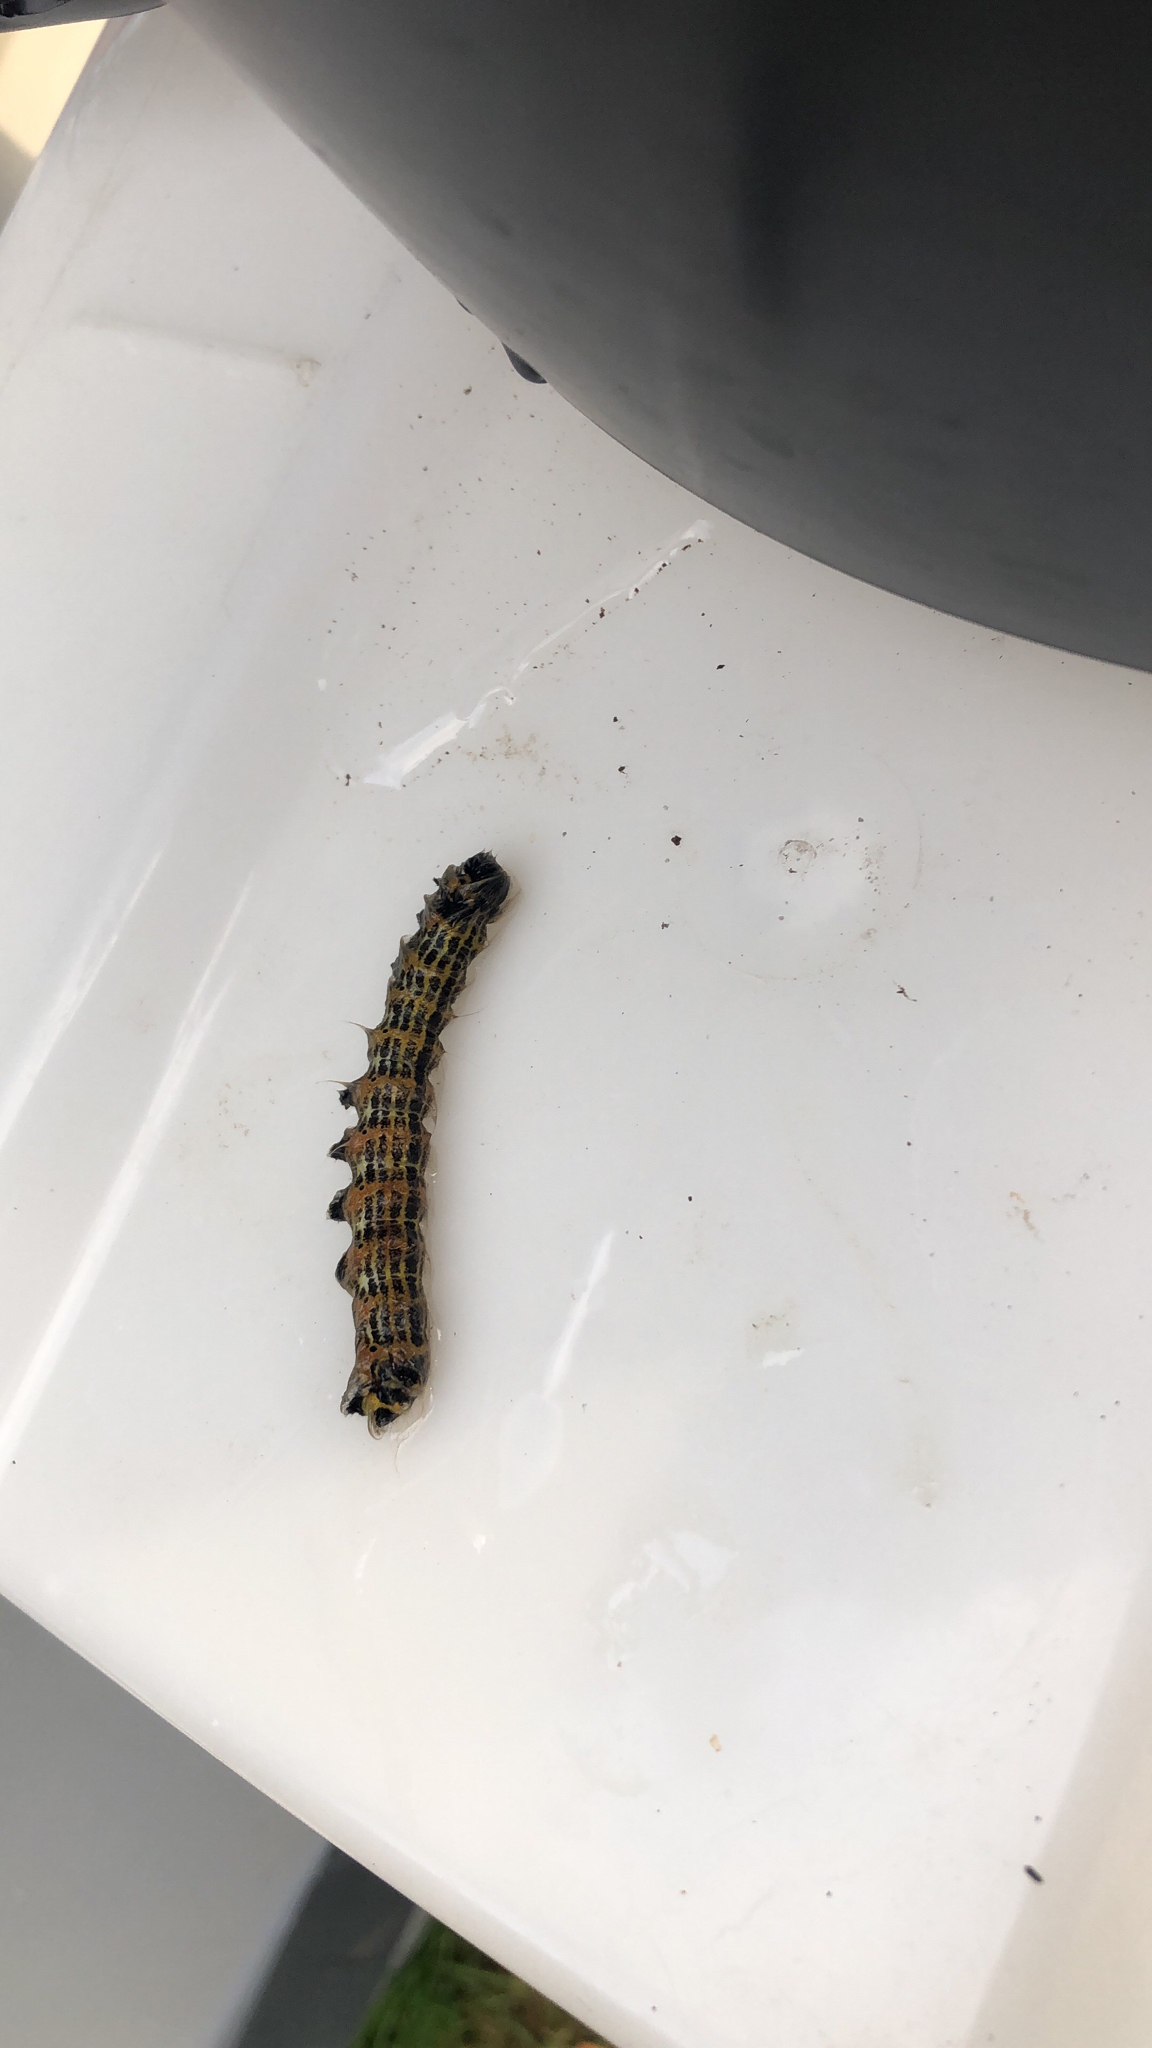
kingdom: Animalia
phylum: Arthropoda
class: Insecta
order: Lepidoptera
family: Notodontidae
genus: Phalera
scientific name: Phalera bucephala
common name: Buff-tip
